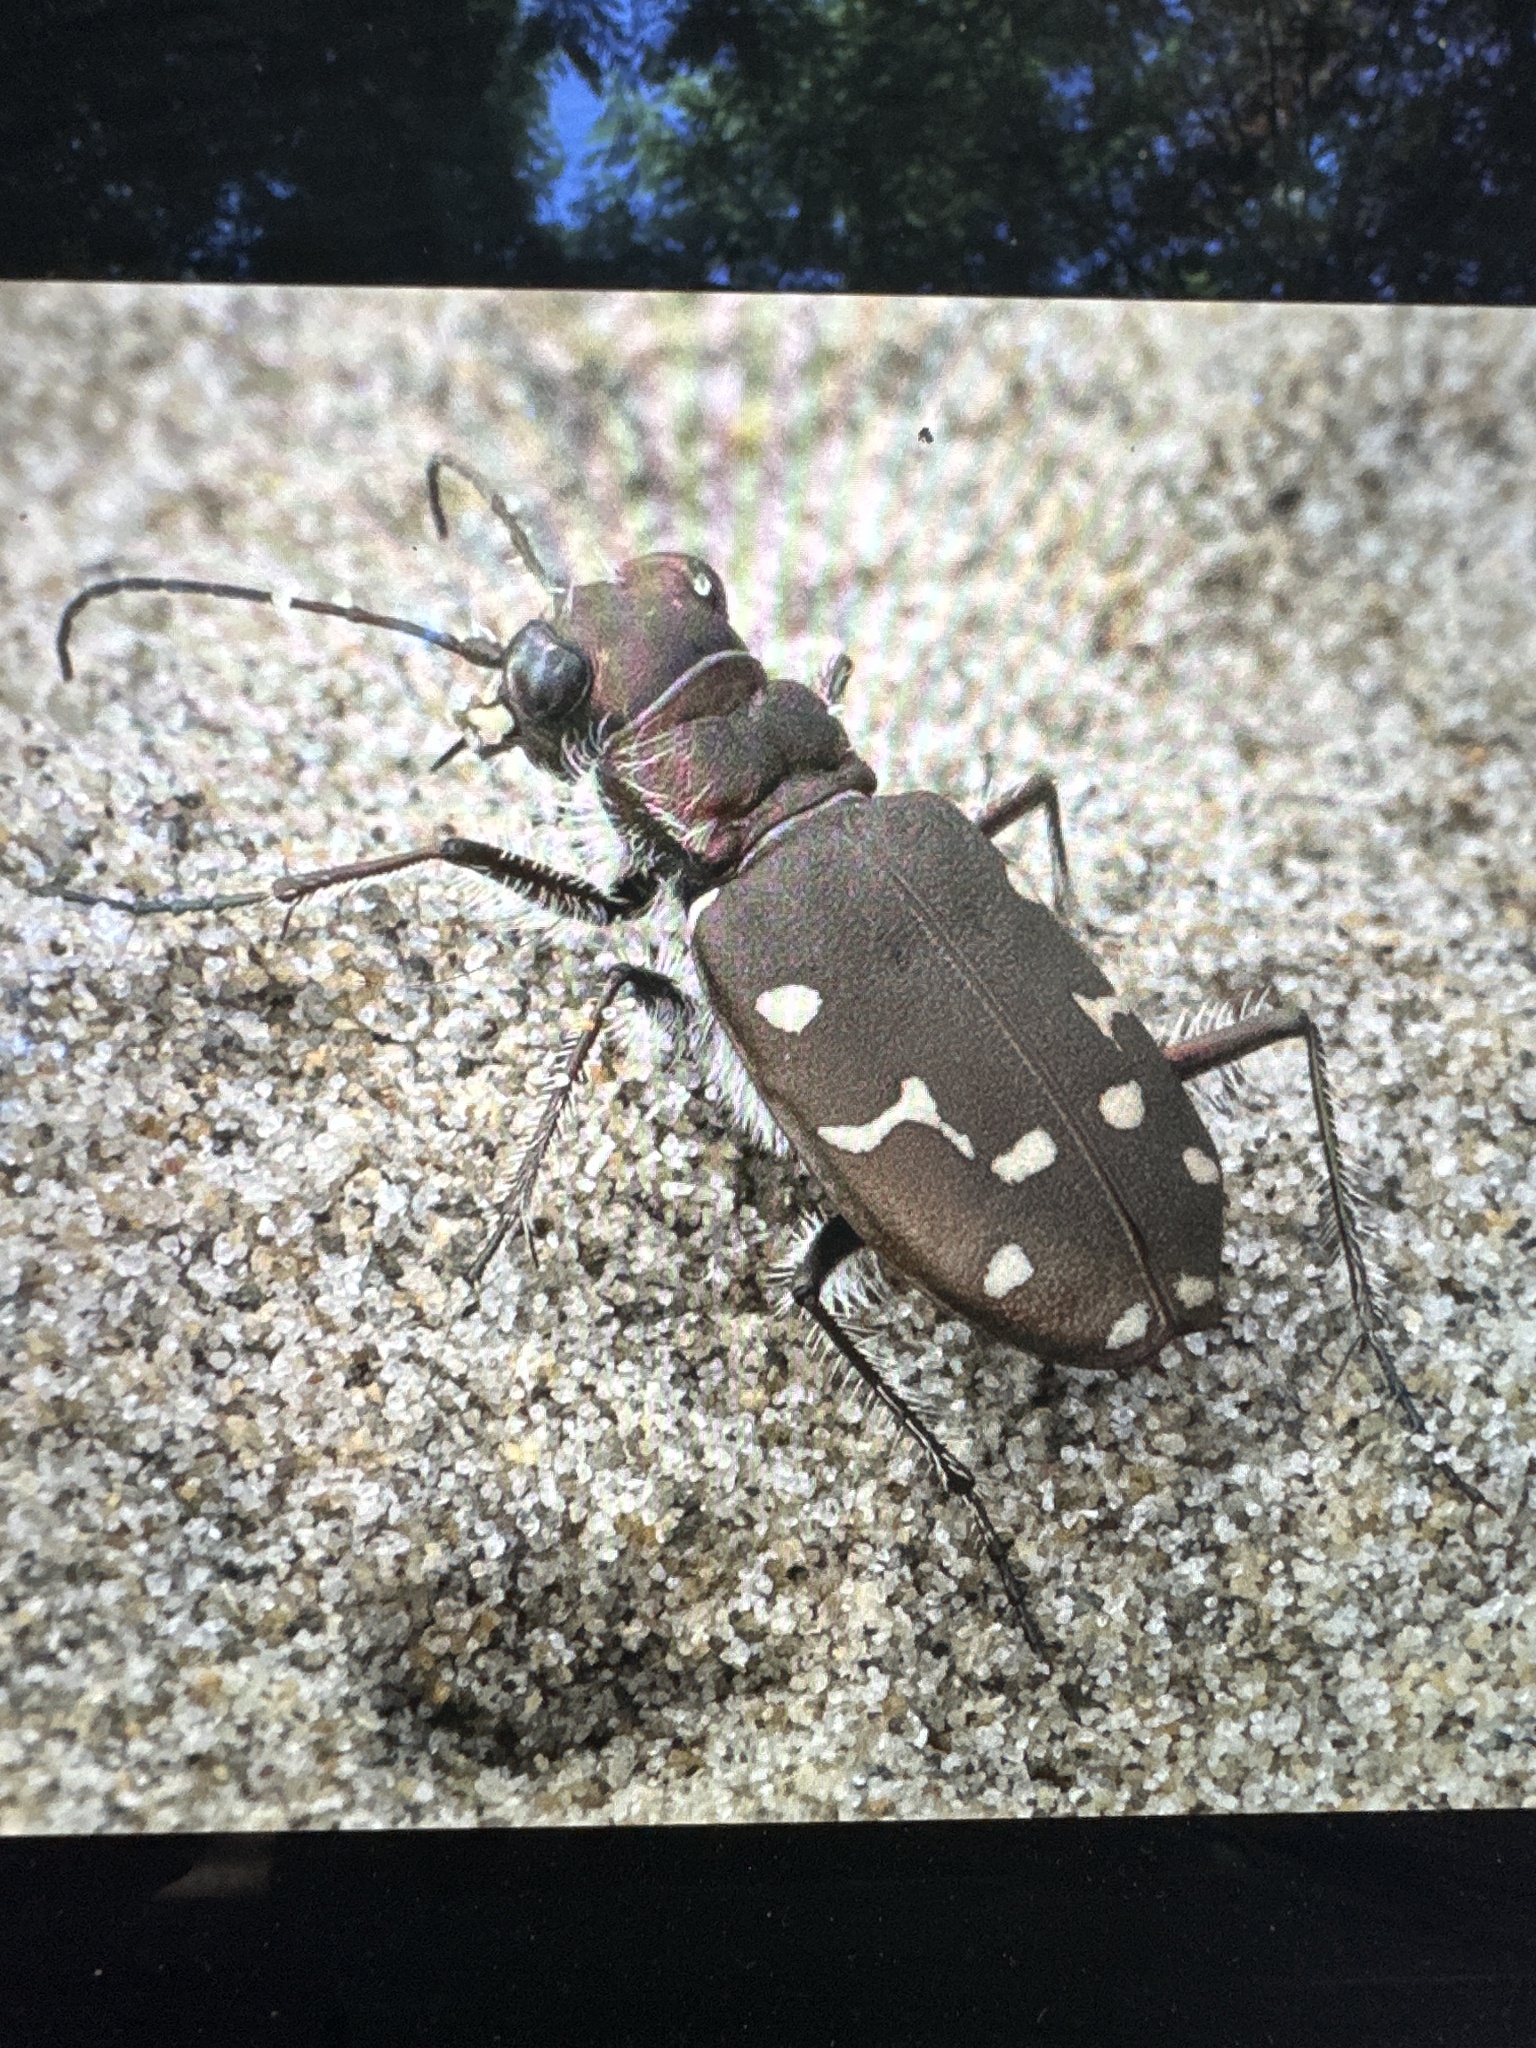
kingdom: Animalia
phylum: Arthropoda
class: Insecta
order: Coleoptera
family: Carabidae
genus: Cicindela
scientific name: Cicindela oregona
